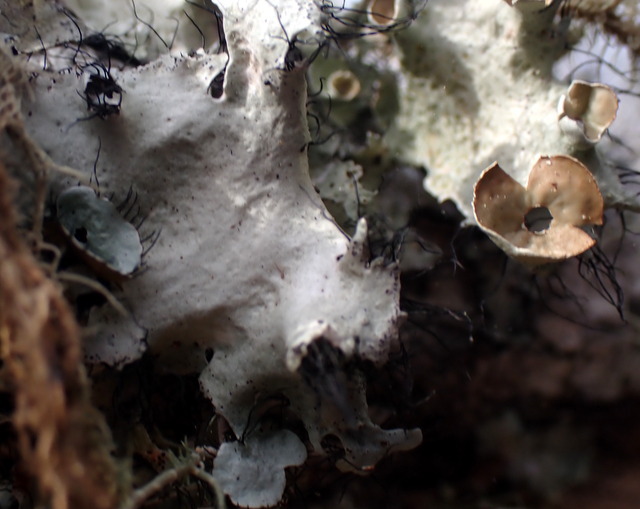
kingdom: Fungi
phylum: Ascomycota
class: Lecanoromycetes
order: Lecanorales
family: Parmeliaceae
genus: Parmotrema
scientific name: Parmotrema perforatum
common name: Perforated ruffle lichen
